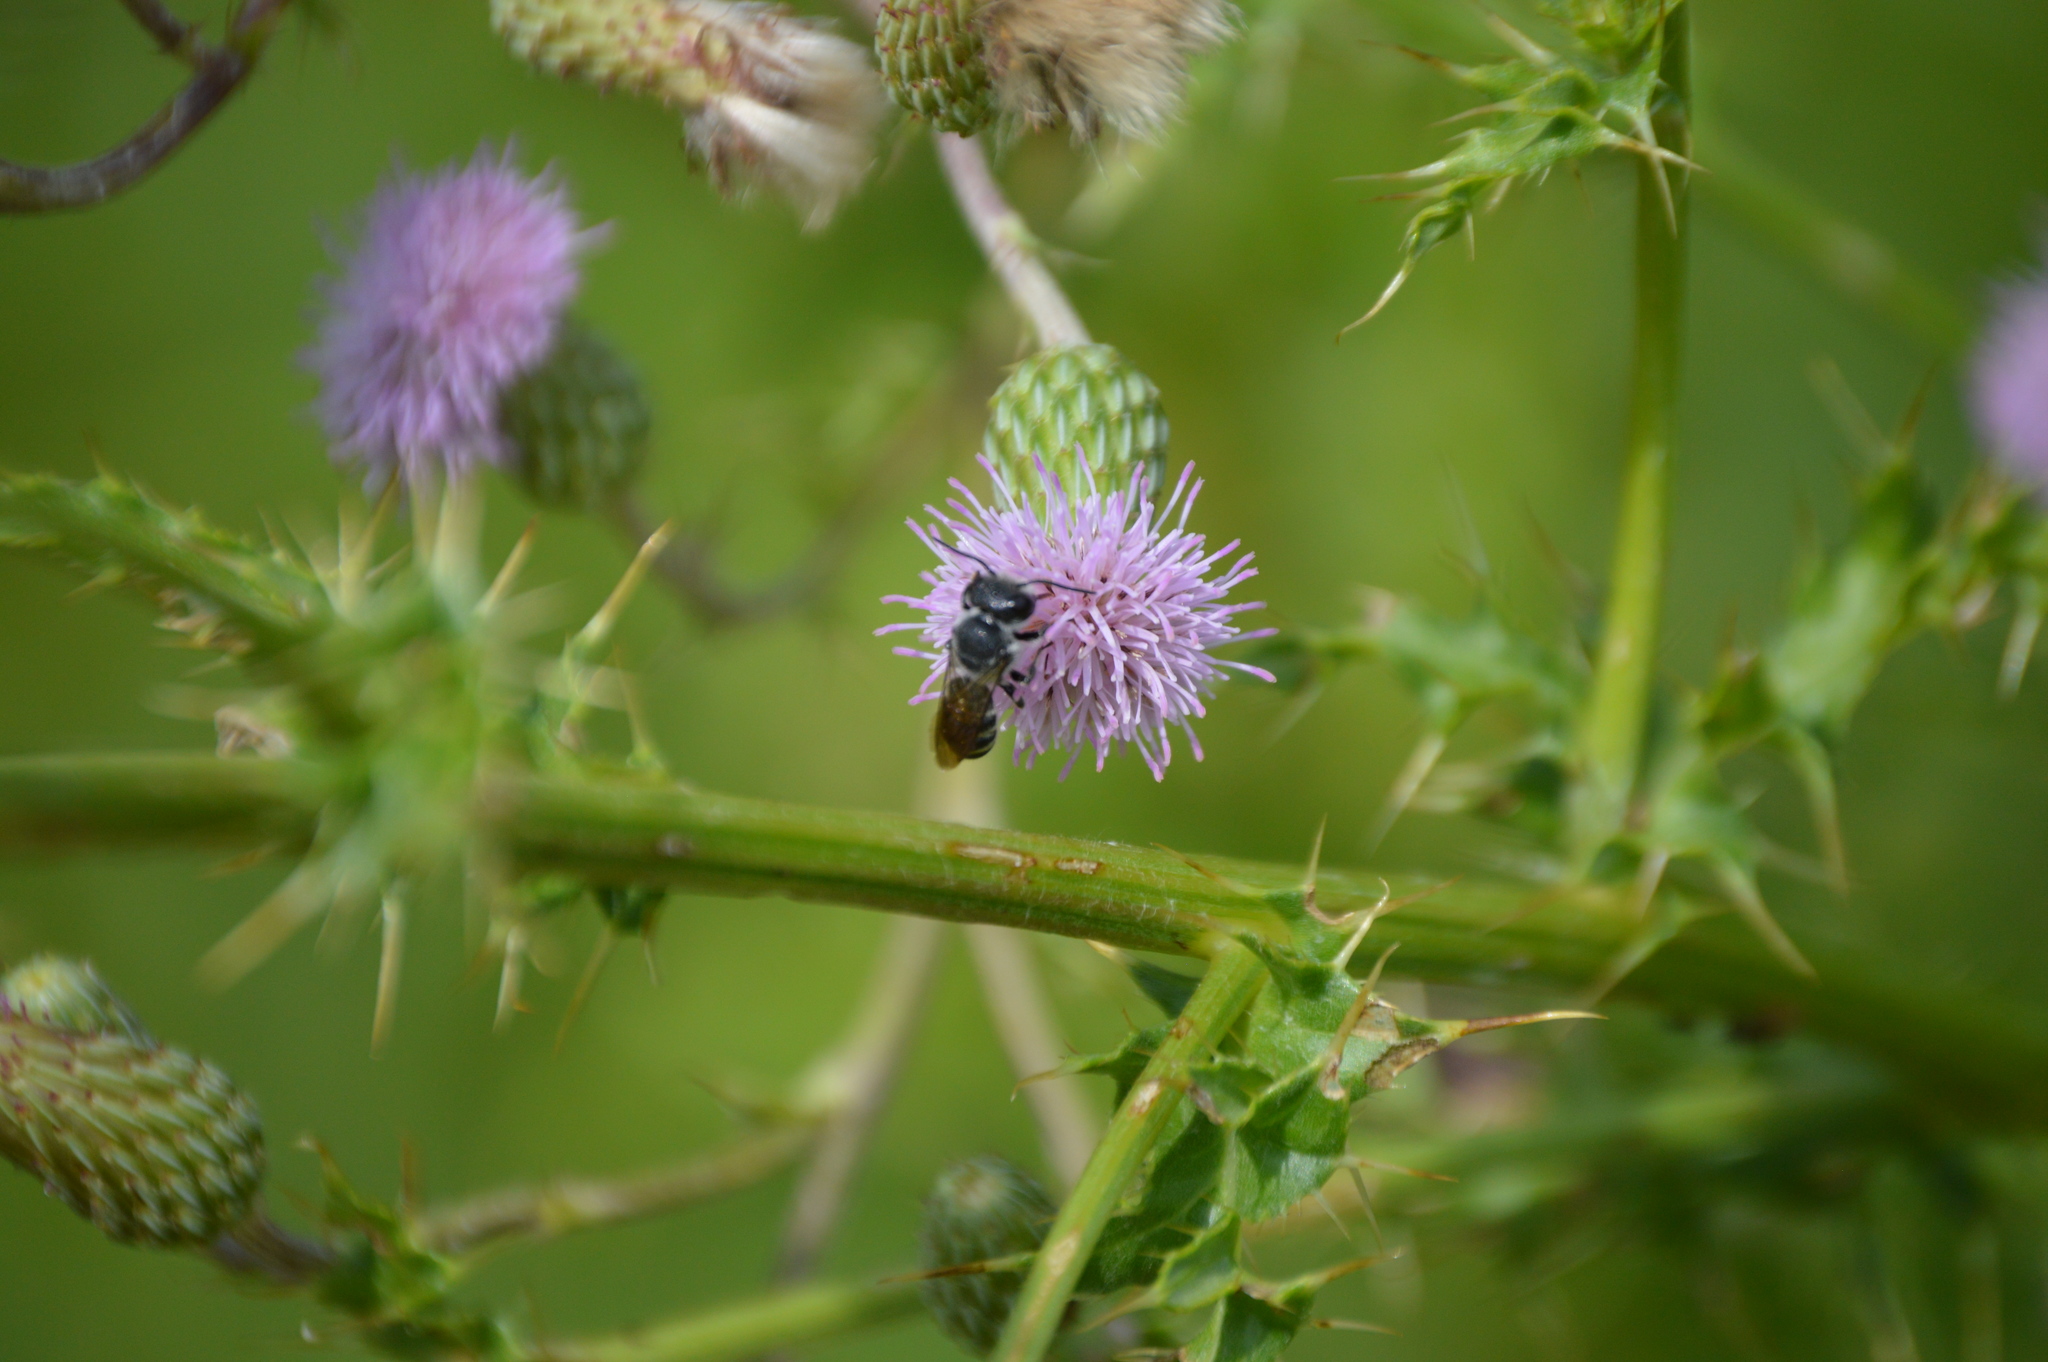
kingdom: Animalia
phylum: Arthropoda
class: Insecta
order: Hymenoptera
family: Megachilidae
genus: Megachile
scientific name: Megachile campanulae
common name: Bellflower resin bee
